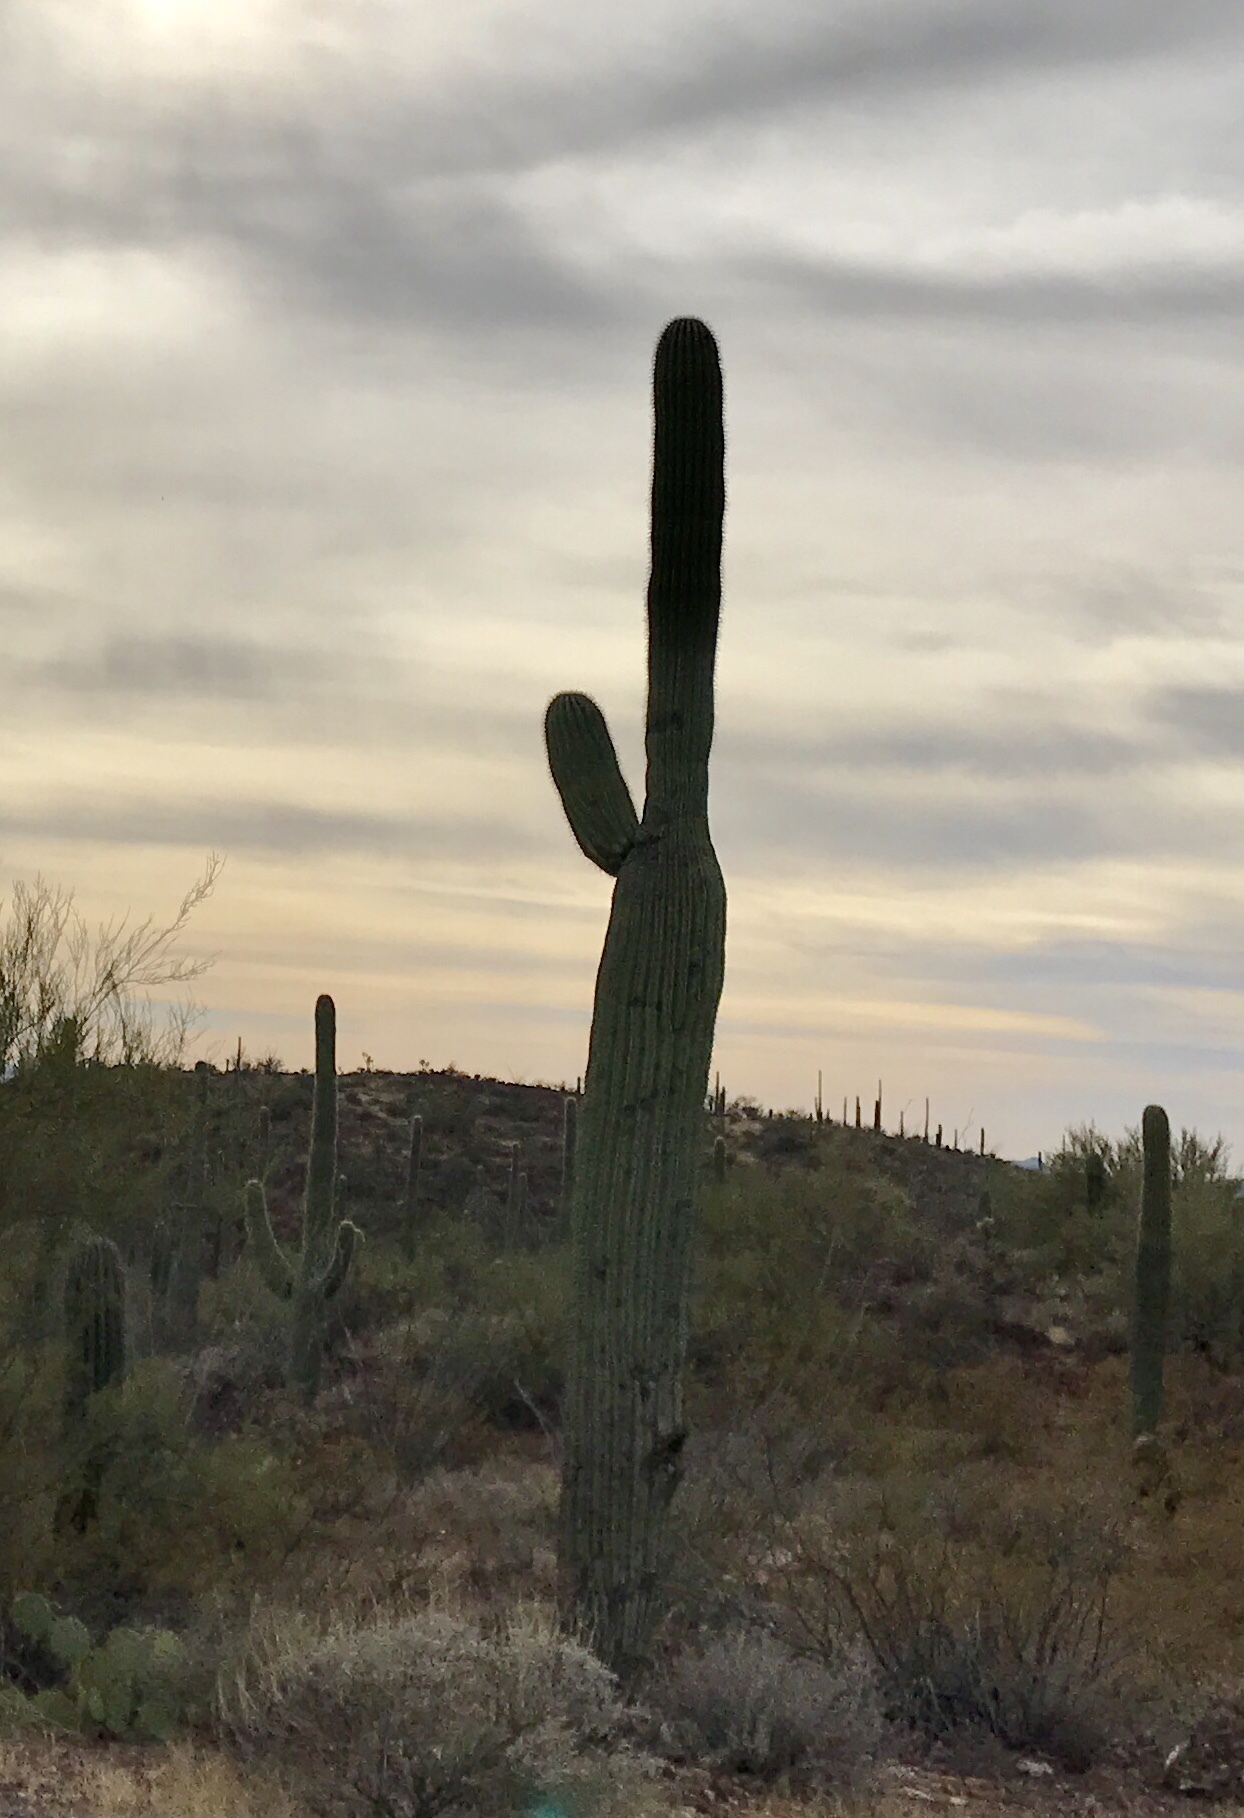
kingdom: Plantae
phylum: Tracheophyta
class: Magnoliopsida
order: Caryophyllales
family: Cactaceae
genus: Carnegiea
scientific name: Carnegiea gigantea
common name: Saguaro
